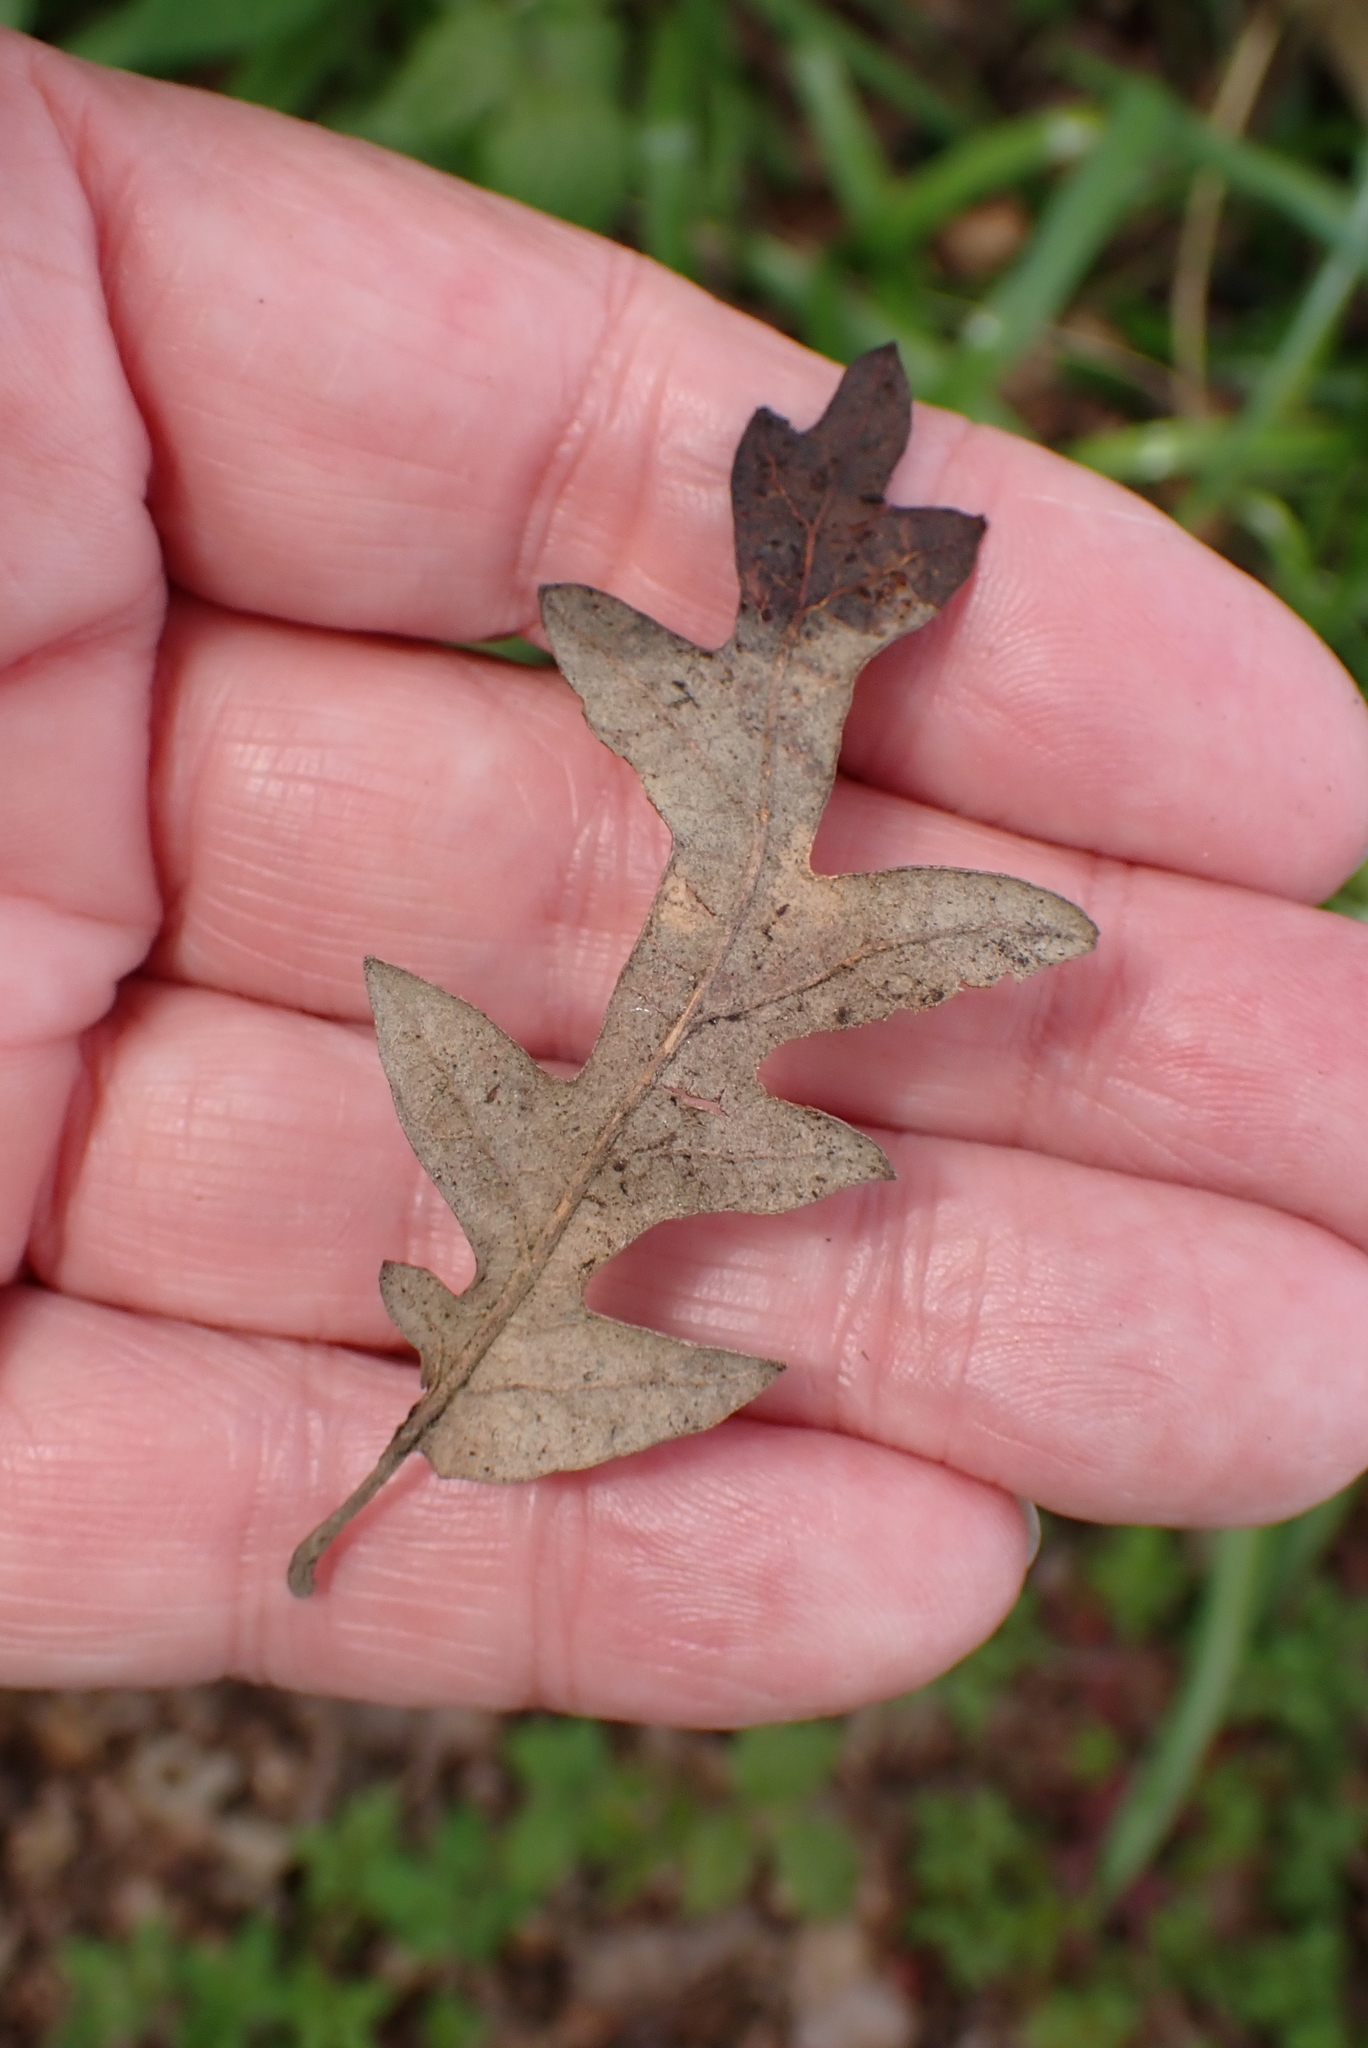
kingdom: Plantae
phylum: Tracheophyta
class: Magnoliopsida
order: Fagales
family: Fagaceae
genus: Quercus
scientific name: Quercus cerris
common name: Turkey oak
